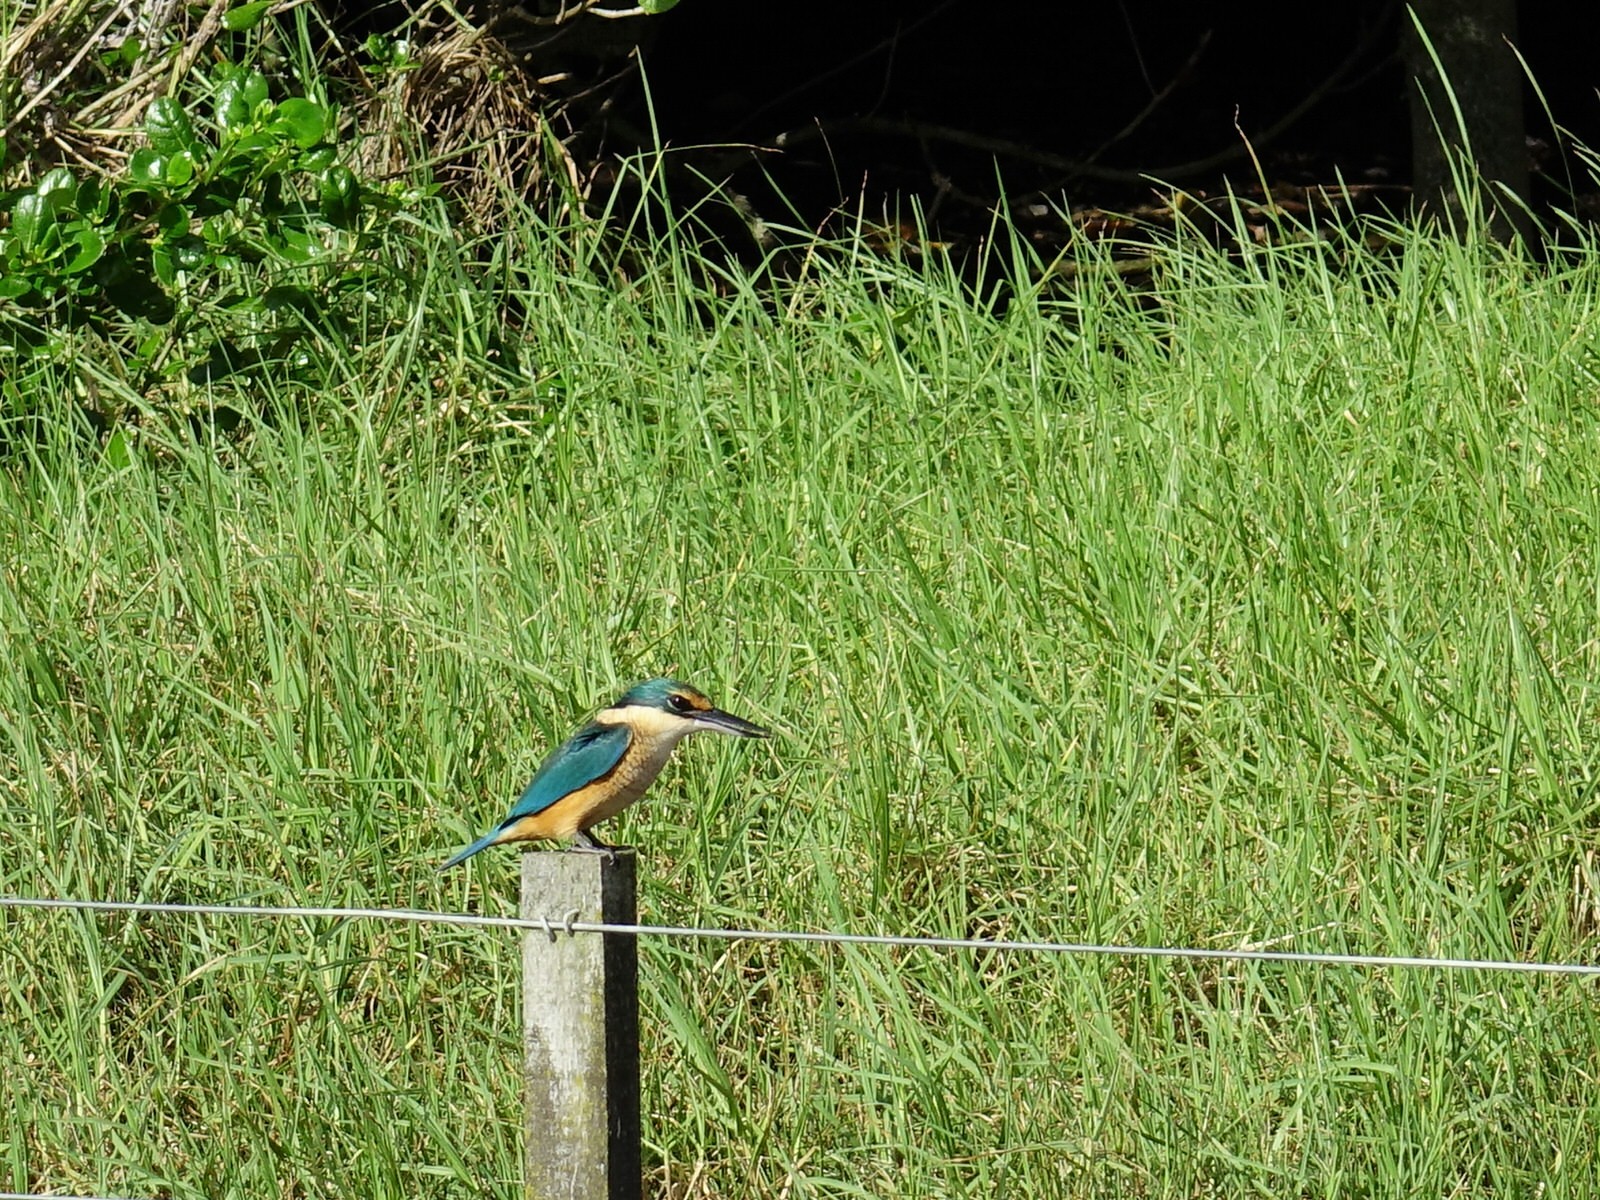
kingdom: Animalia
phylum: Chordata
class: Aves
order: Coraciiformes
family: Alcedinidae
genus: Todiramphus
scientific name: Todiramphus sanctus
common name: Sacred kingfisher
